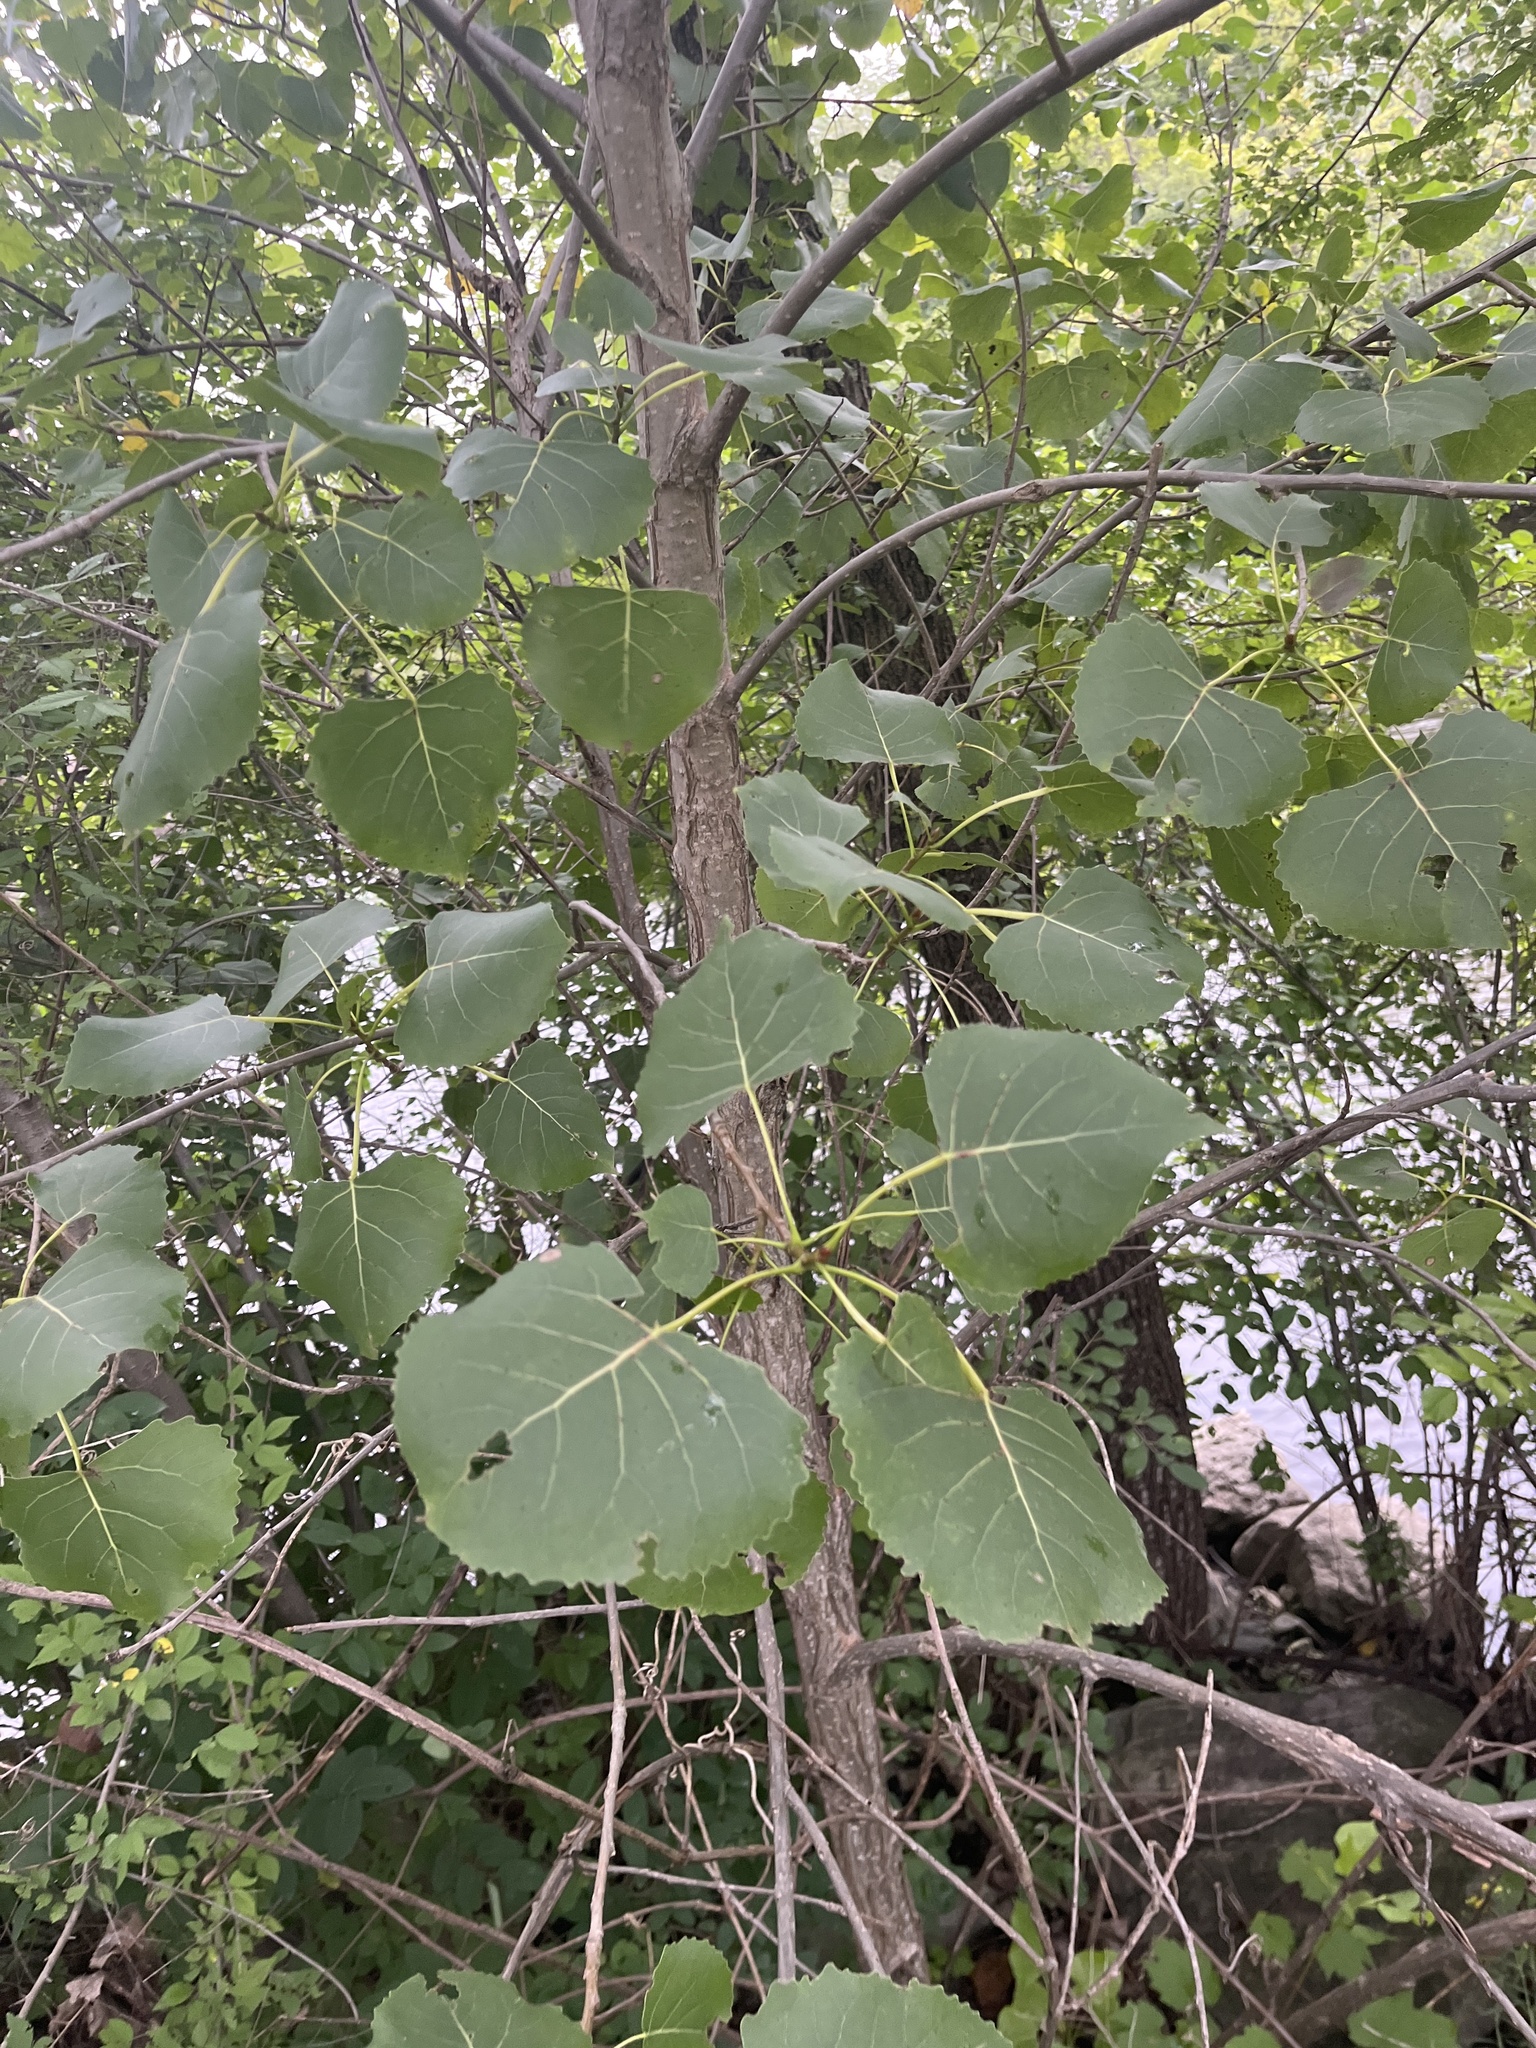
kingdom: Plantae
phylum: Tracheophyta
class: Magnoliopsida
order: Malpighiales
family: Salicaceae
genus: Populus
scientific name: Populus deltoides
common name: Eastern cottonwood
